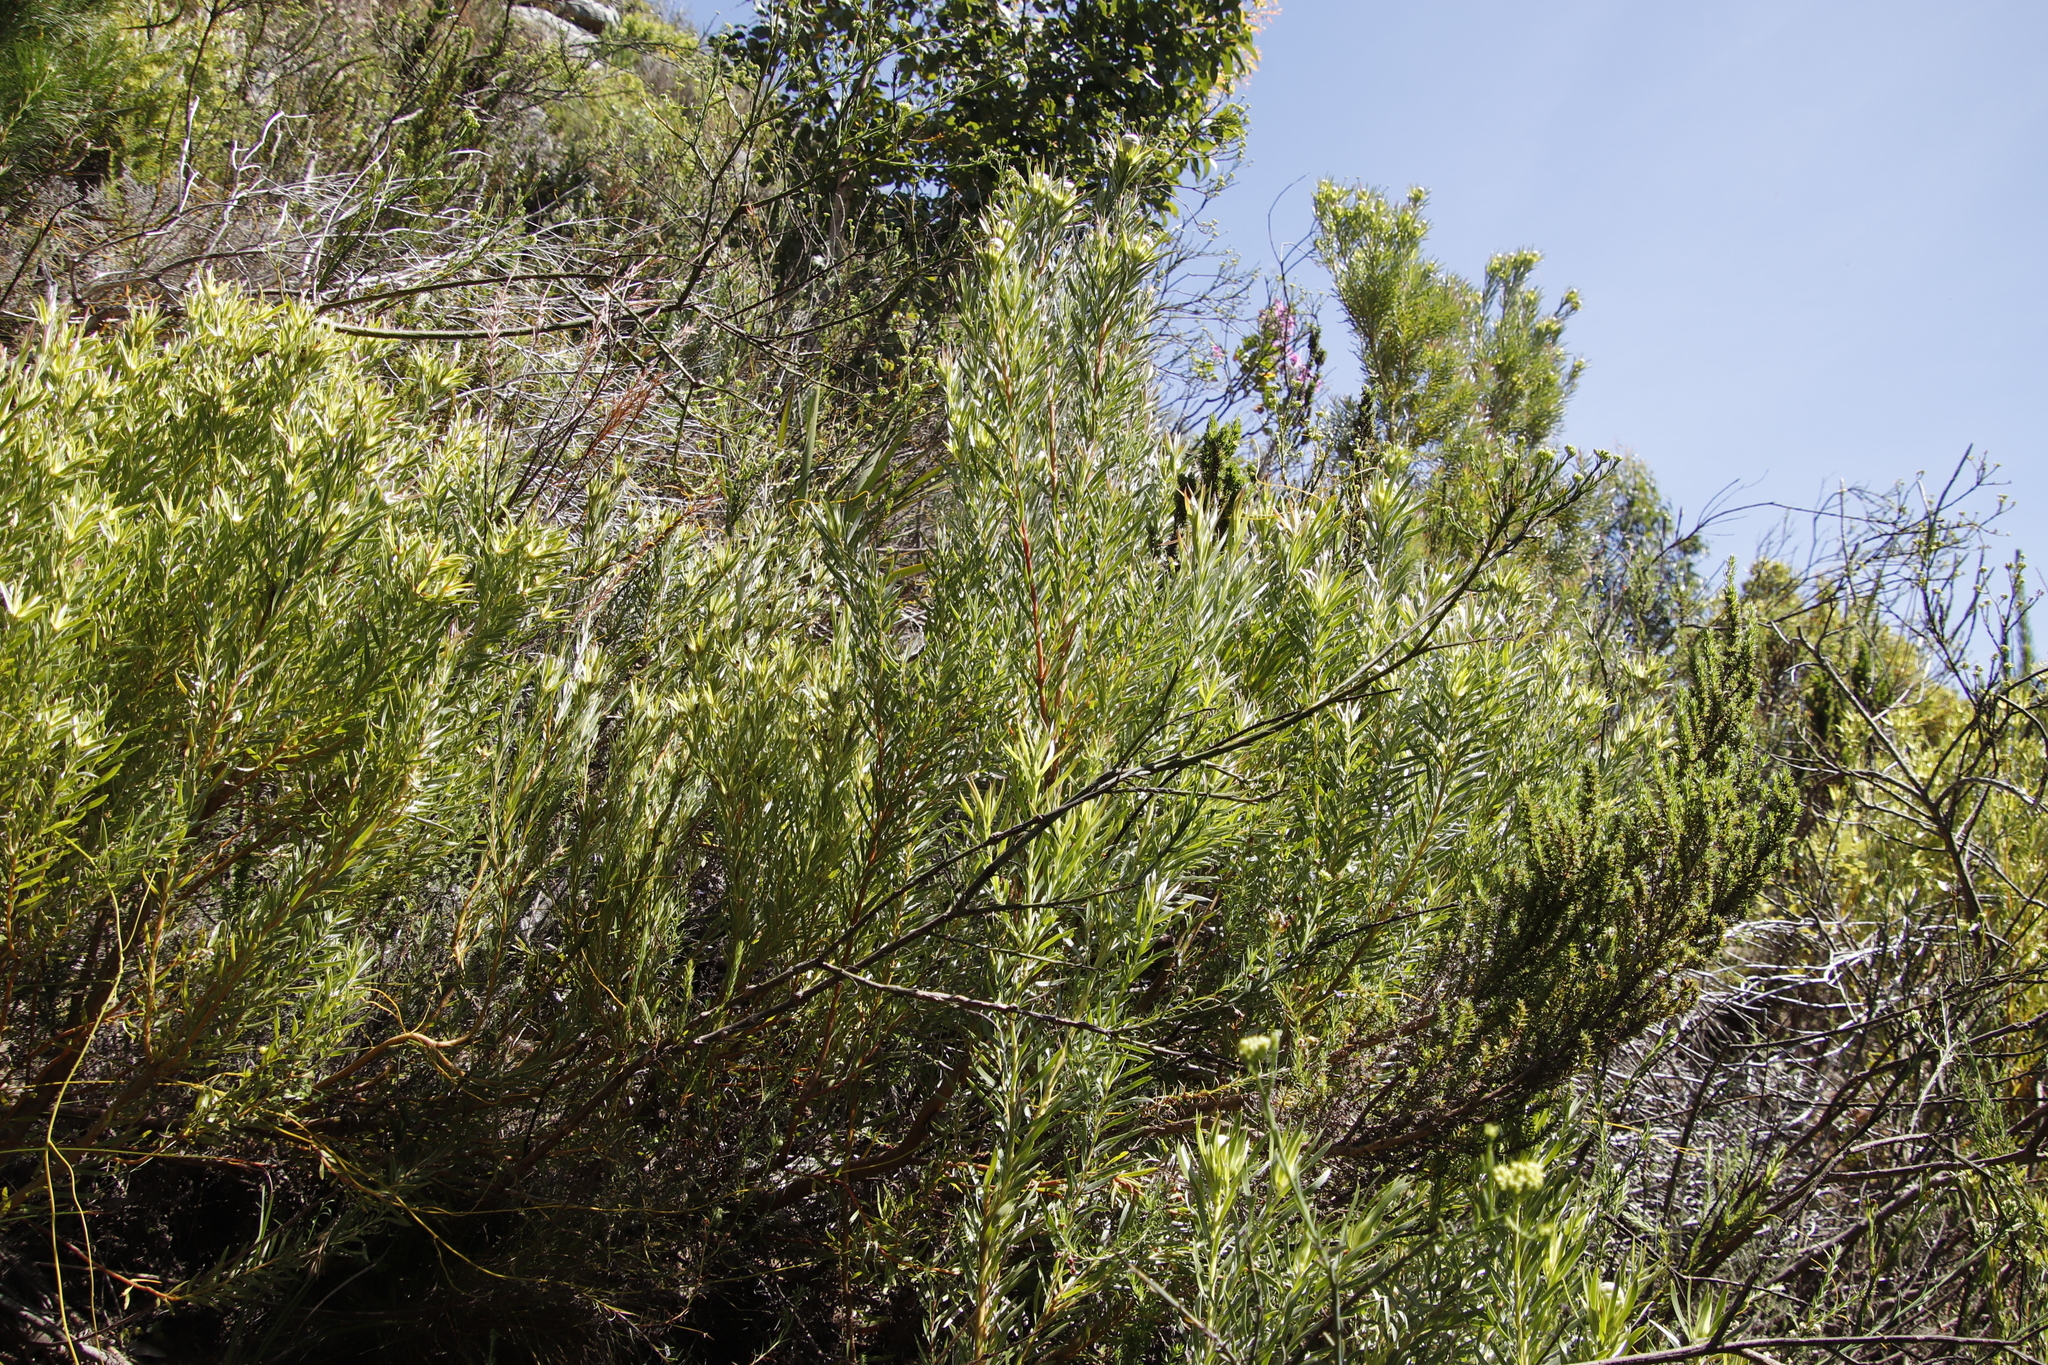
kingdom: Plantae
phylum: Tracheophyta
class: Magnoliopsida
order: Proteales
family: Proteaceae
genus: Leucadendron
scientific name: Leucadendron xanthoconus
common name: Sickle-leaf conebush
